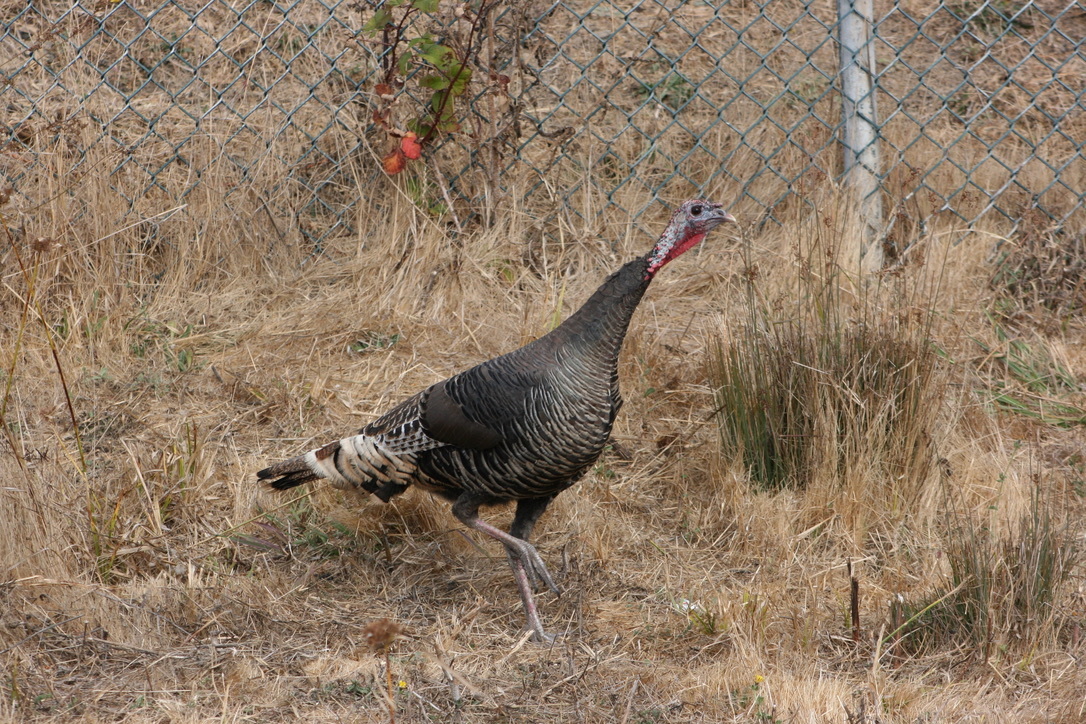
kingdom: Animalia
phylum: Chordata
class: Aves
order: Galliformes
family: Phasianidae
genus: Meleagris
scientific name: Meleagris gallopavo
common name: Wild turkey
